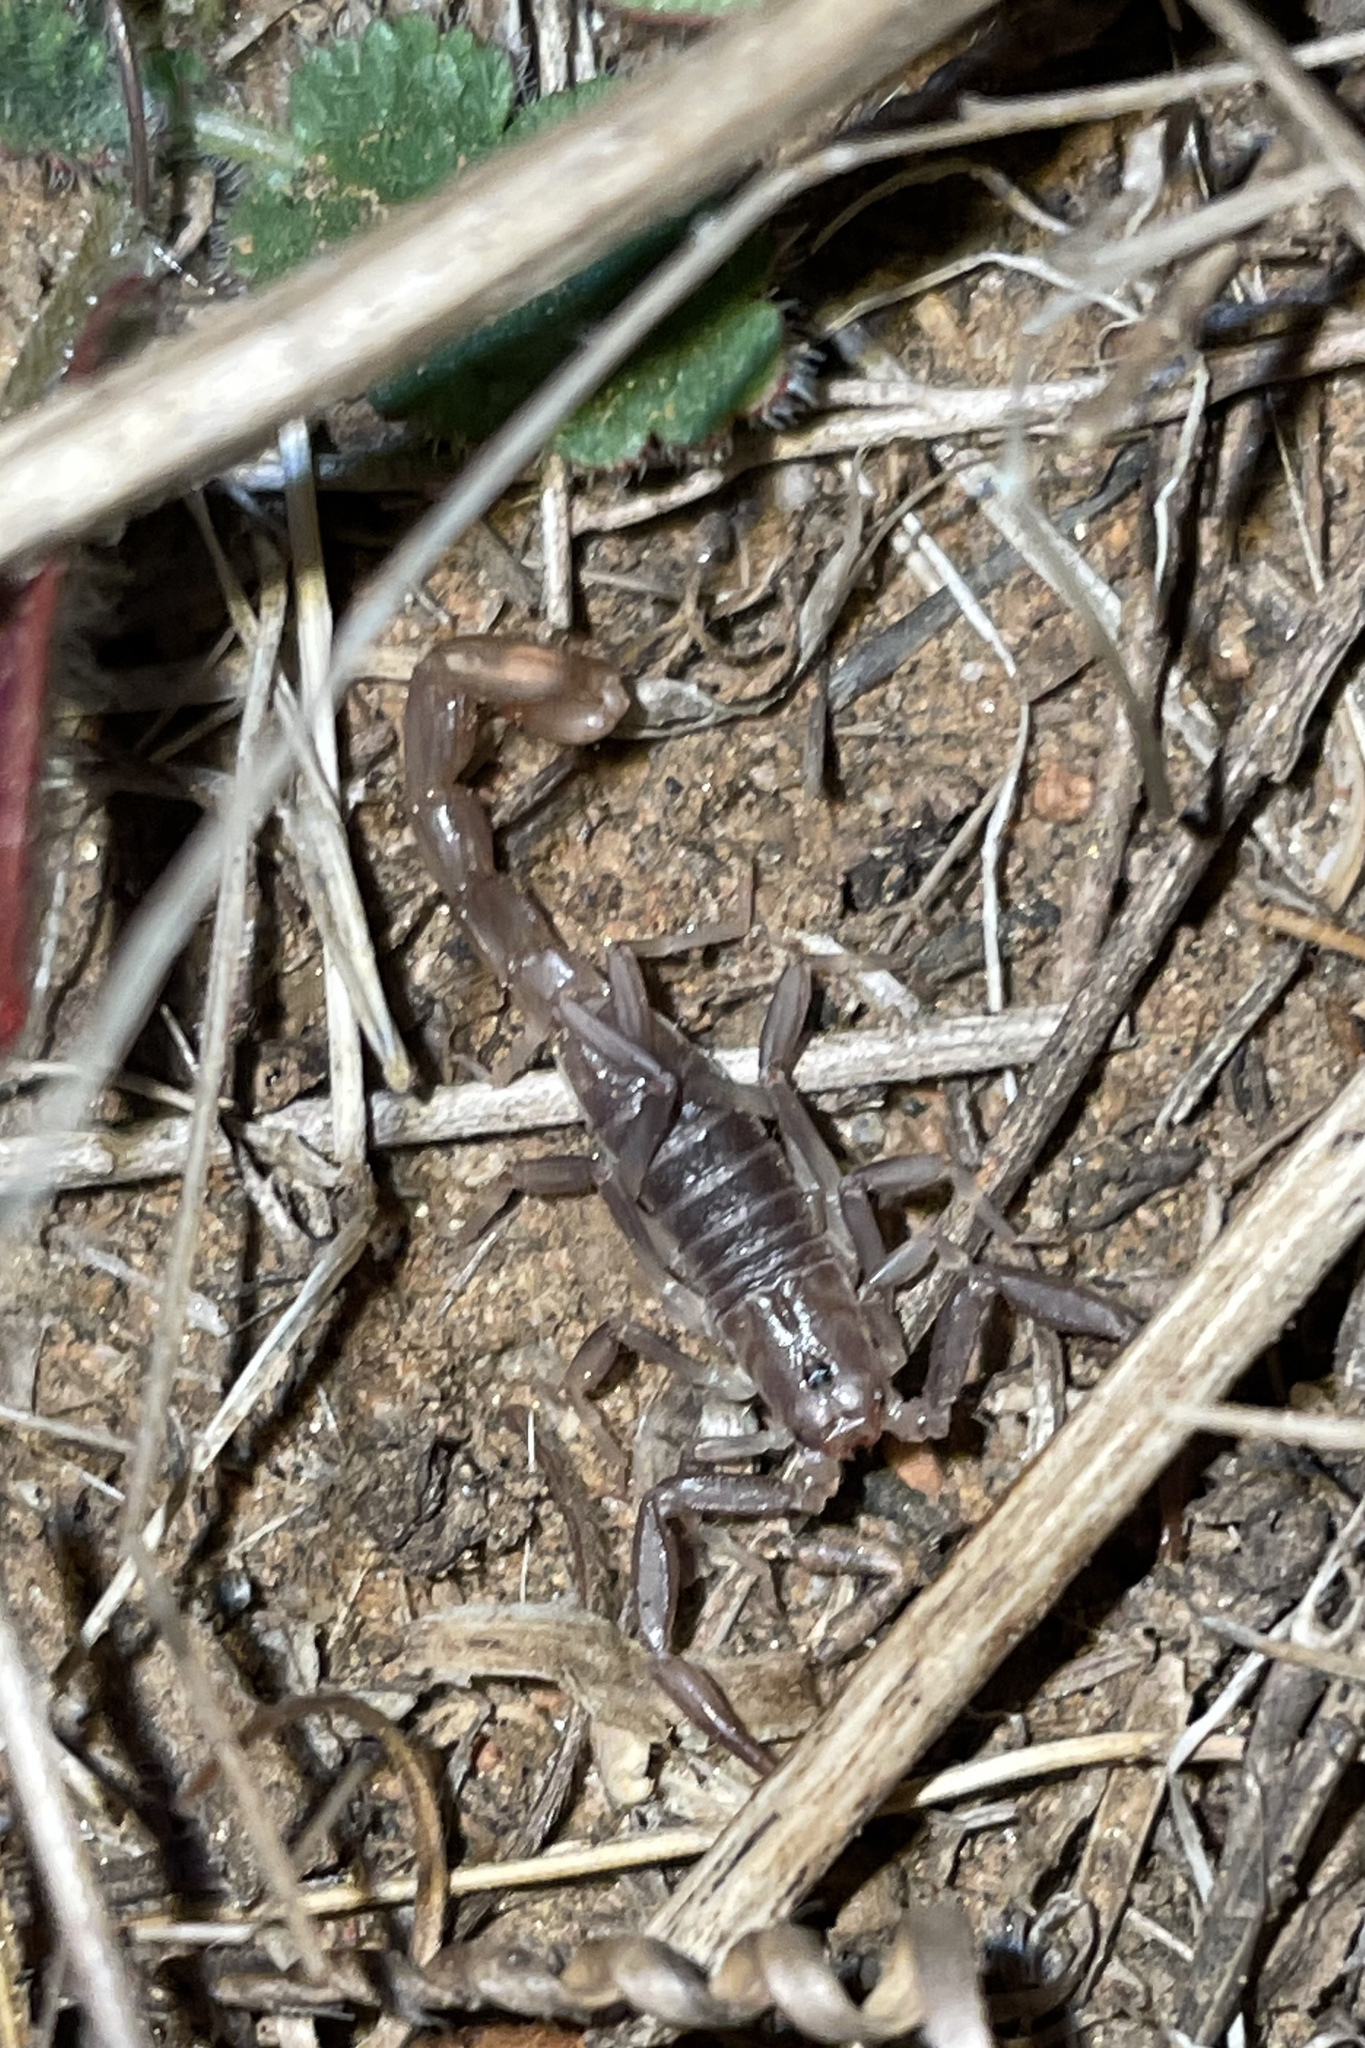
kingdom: Animalia
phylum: Arthropoda
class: Arachnida
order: Scorpiones
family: Vaejovidae
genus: Paravaejovis
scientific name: Paravaejovis puritanus
